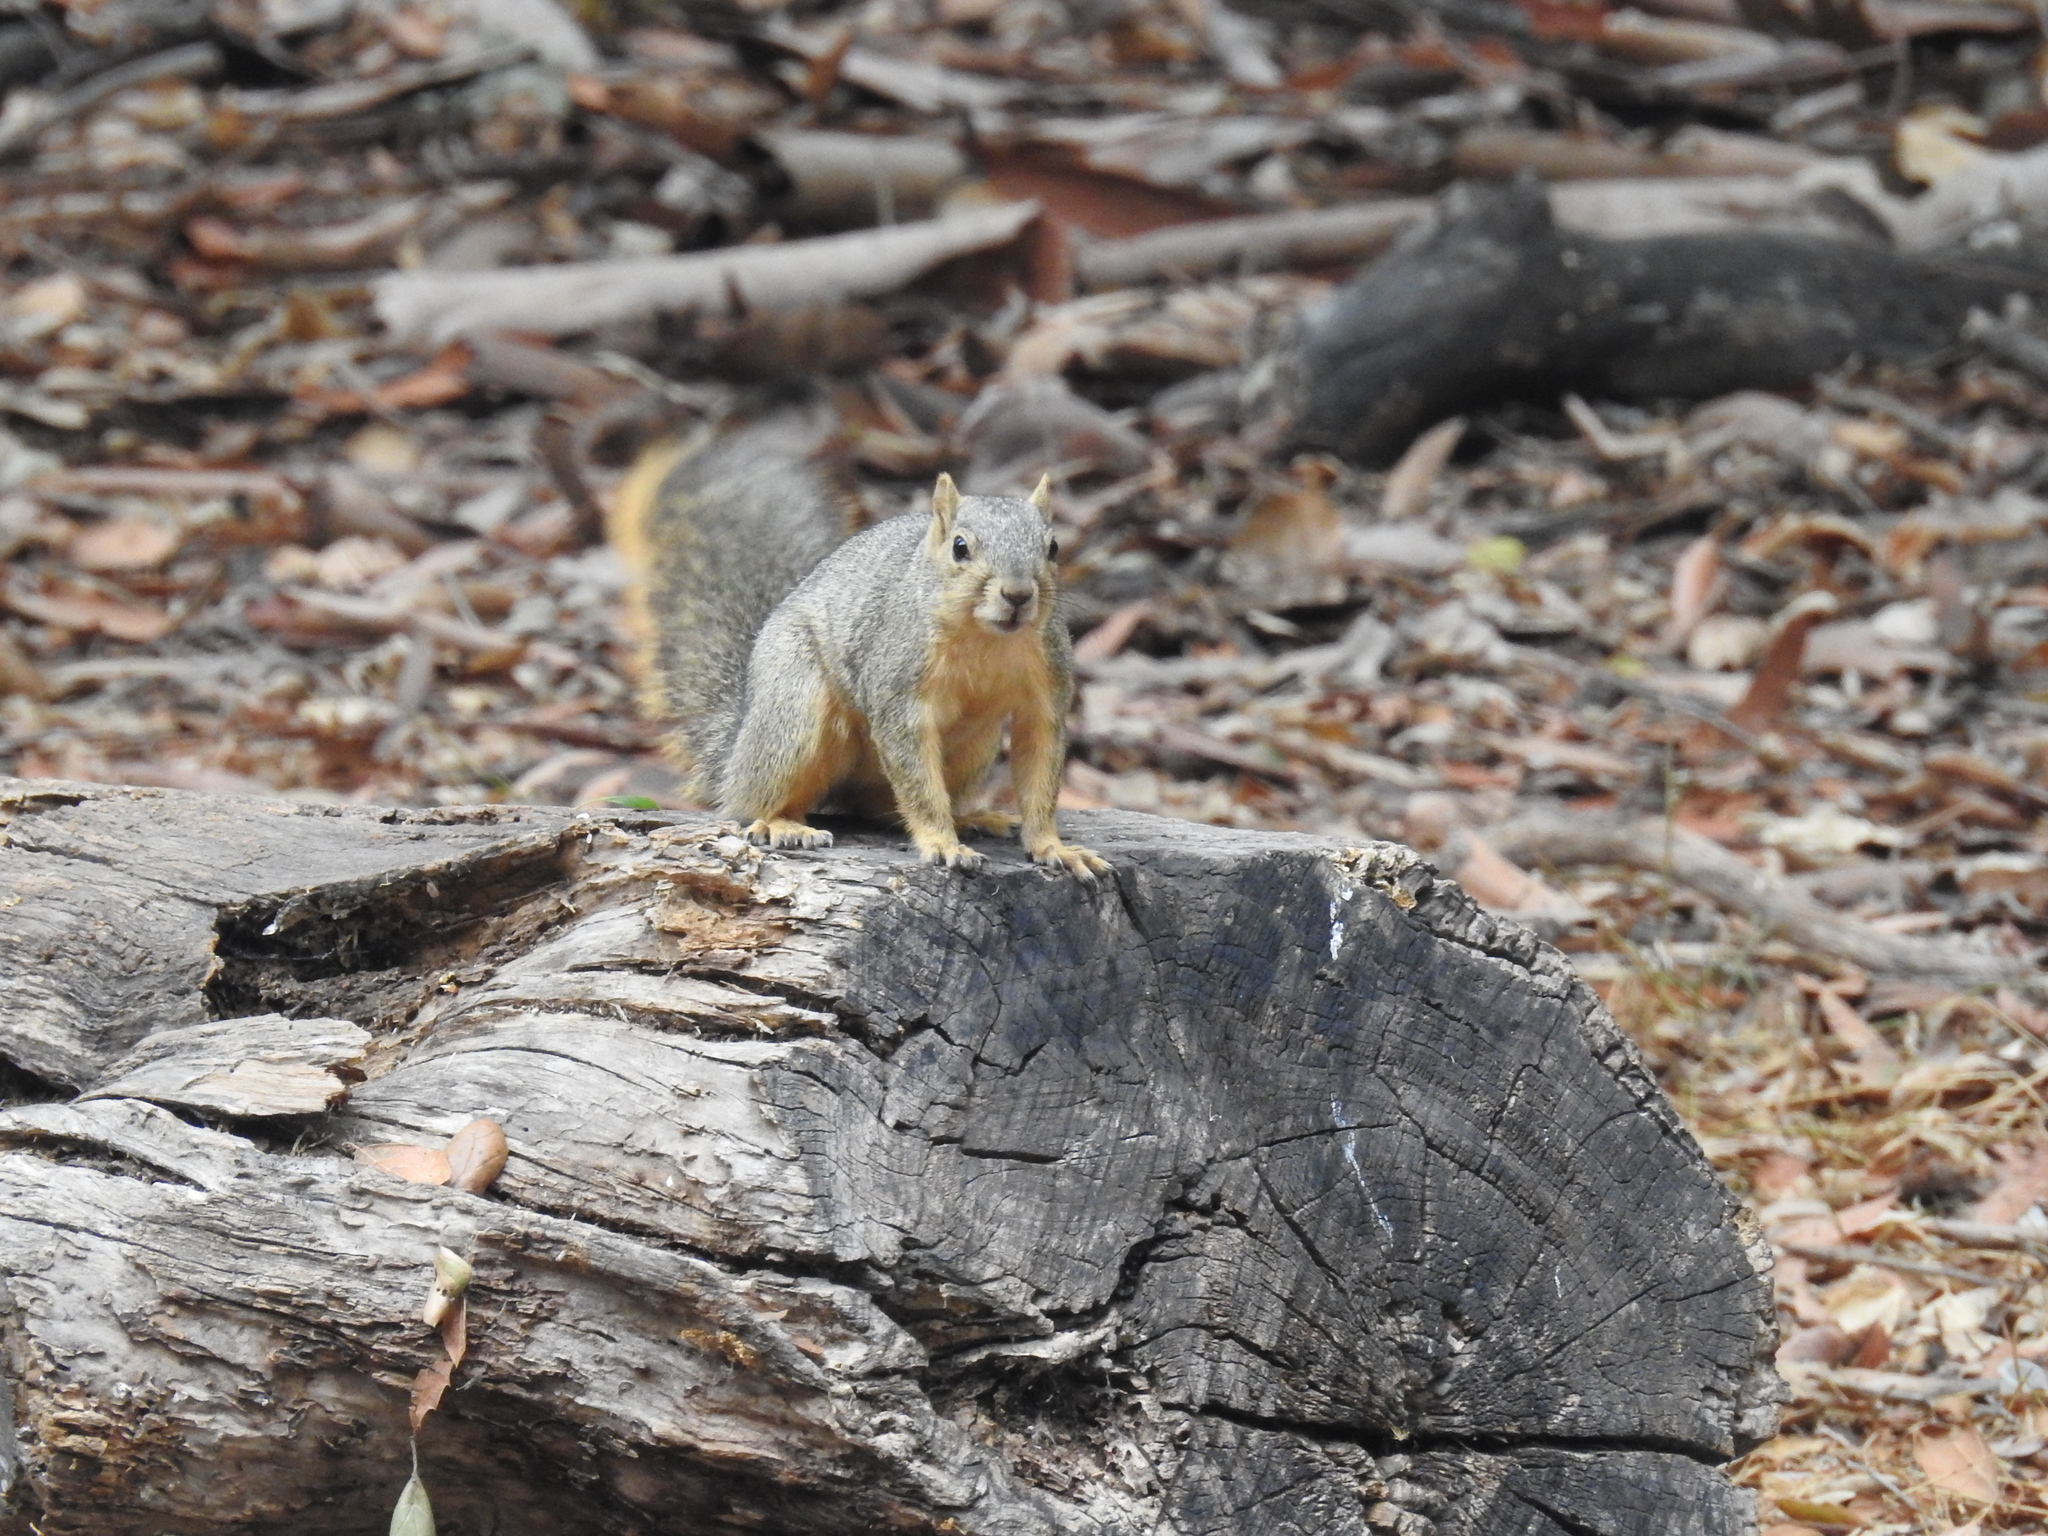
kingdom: Animalia
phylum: Chordata
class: Mammalia
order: Rodentia
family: Sciuridae
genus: Sciurus
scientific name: Sciurus niger
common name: Fox squirrel
